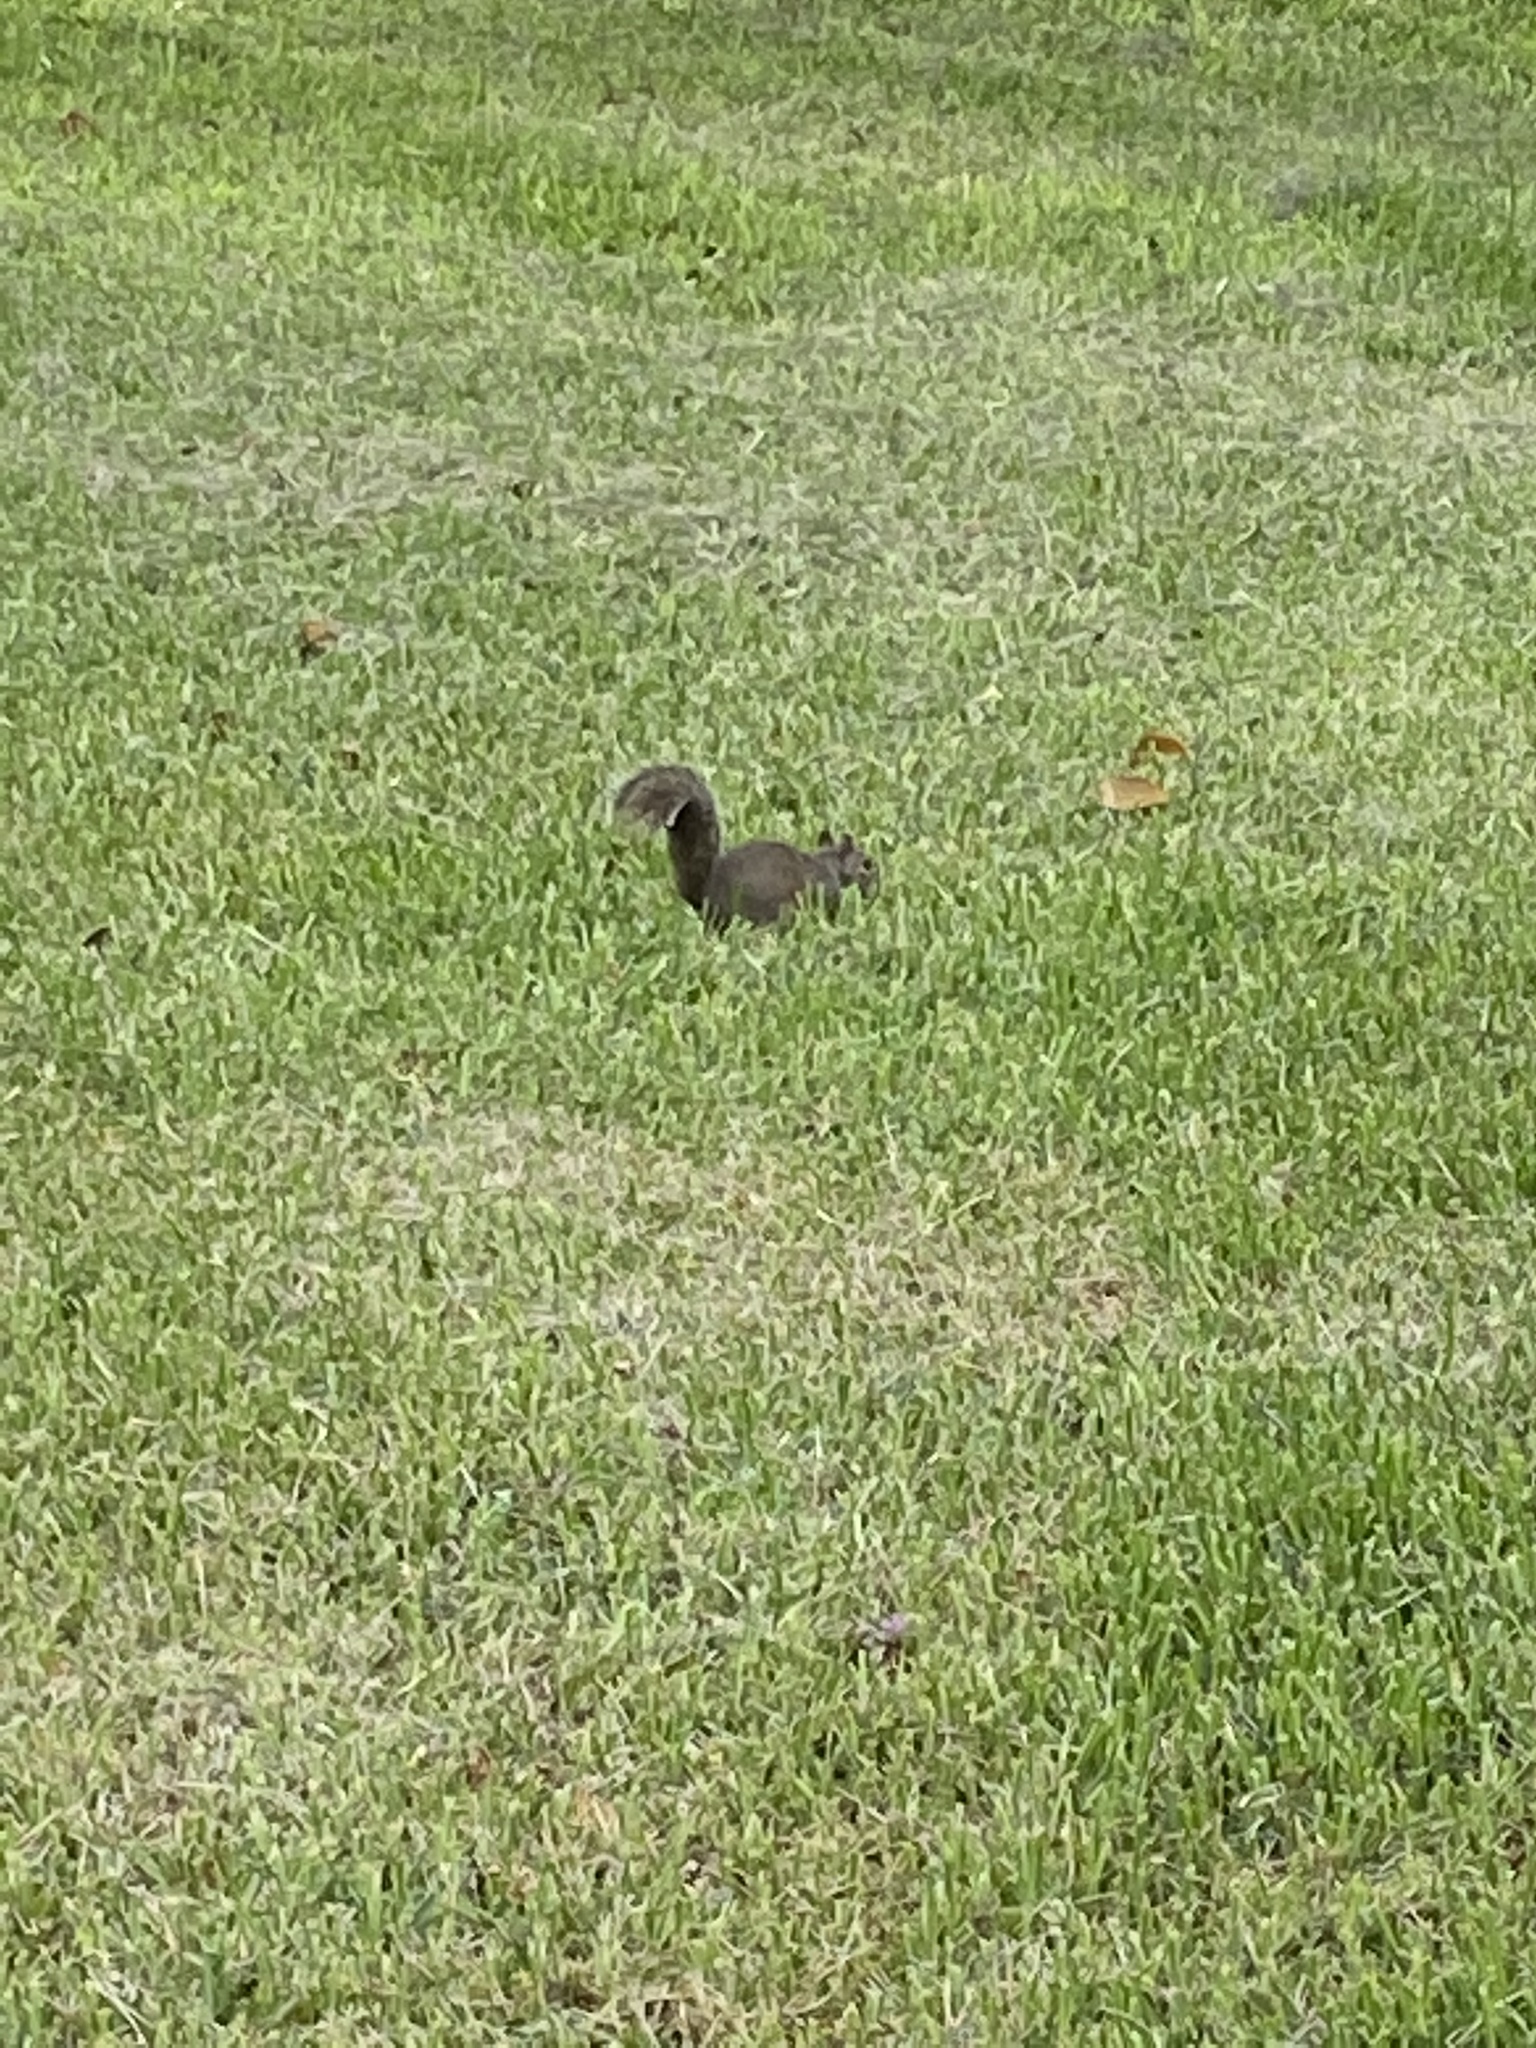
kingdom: Animalia
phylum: Chordata
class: Mammalia
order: Rodentia
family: Sciuridae
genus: Sciurus
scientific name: Sciurus carolinensis
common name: Eastern gray squirrel
